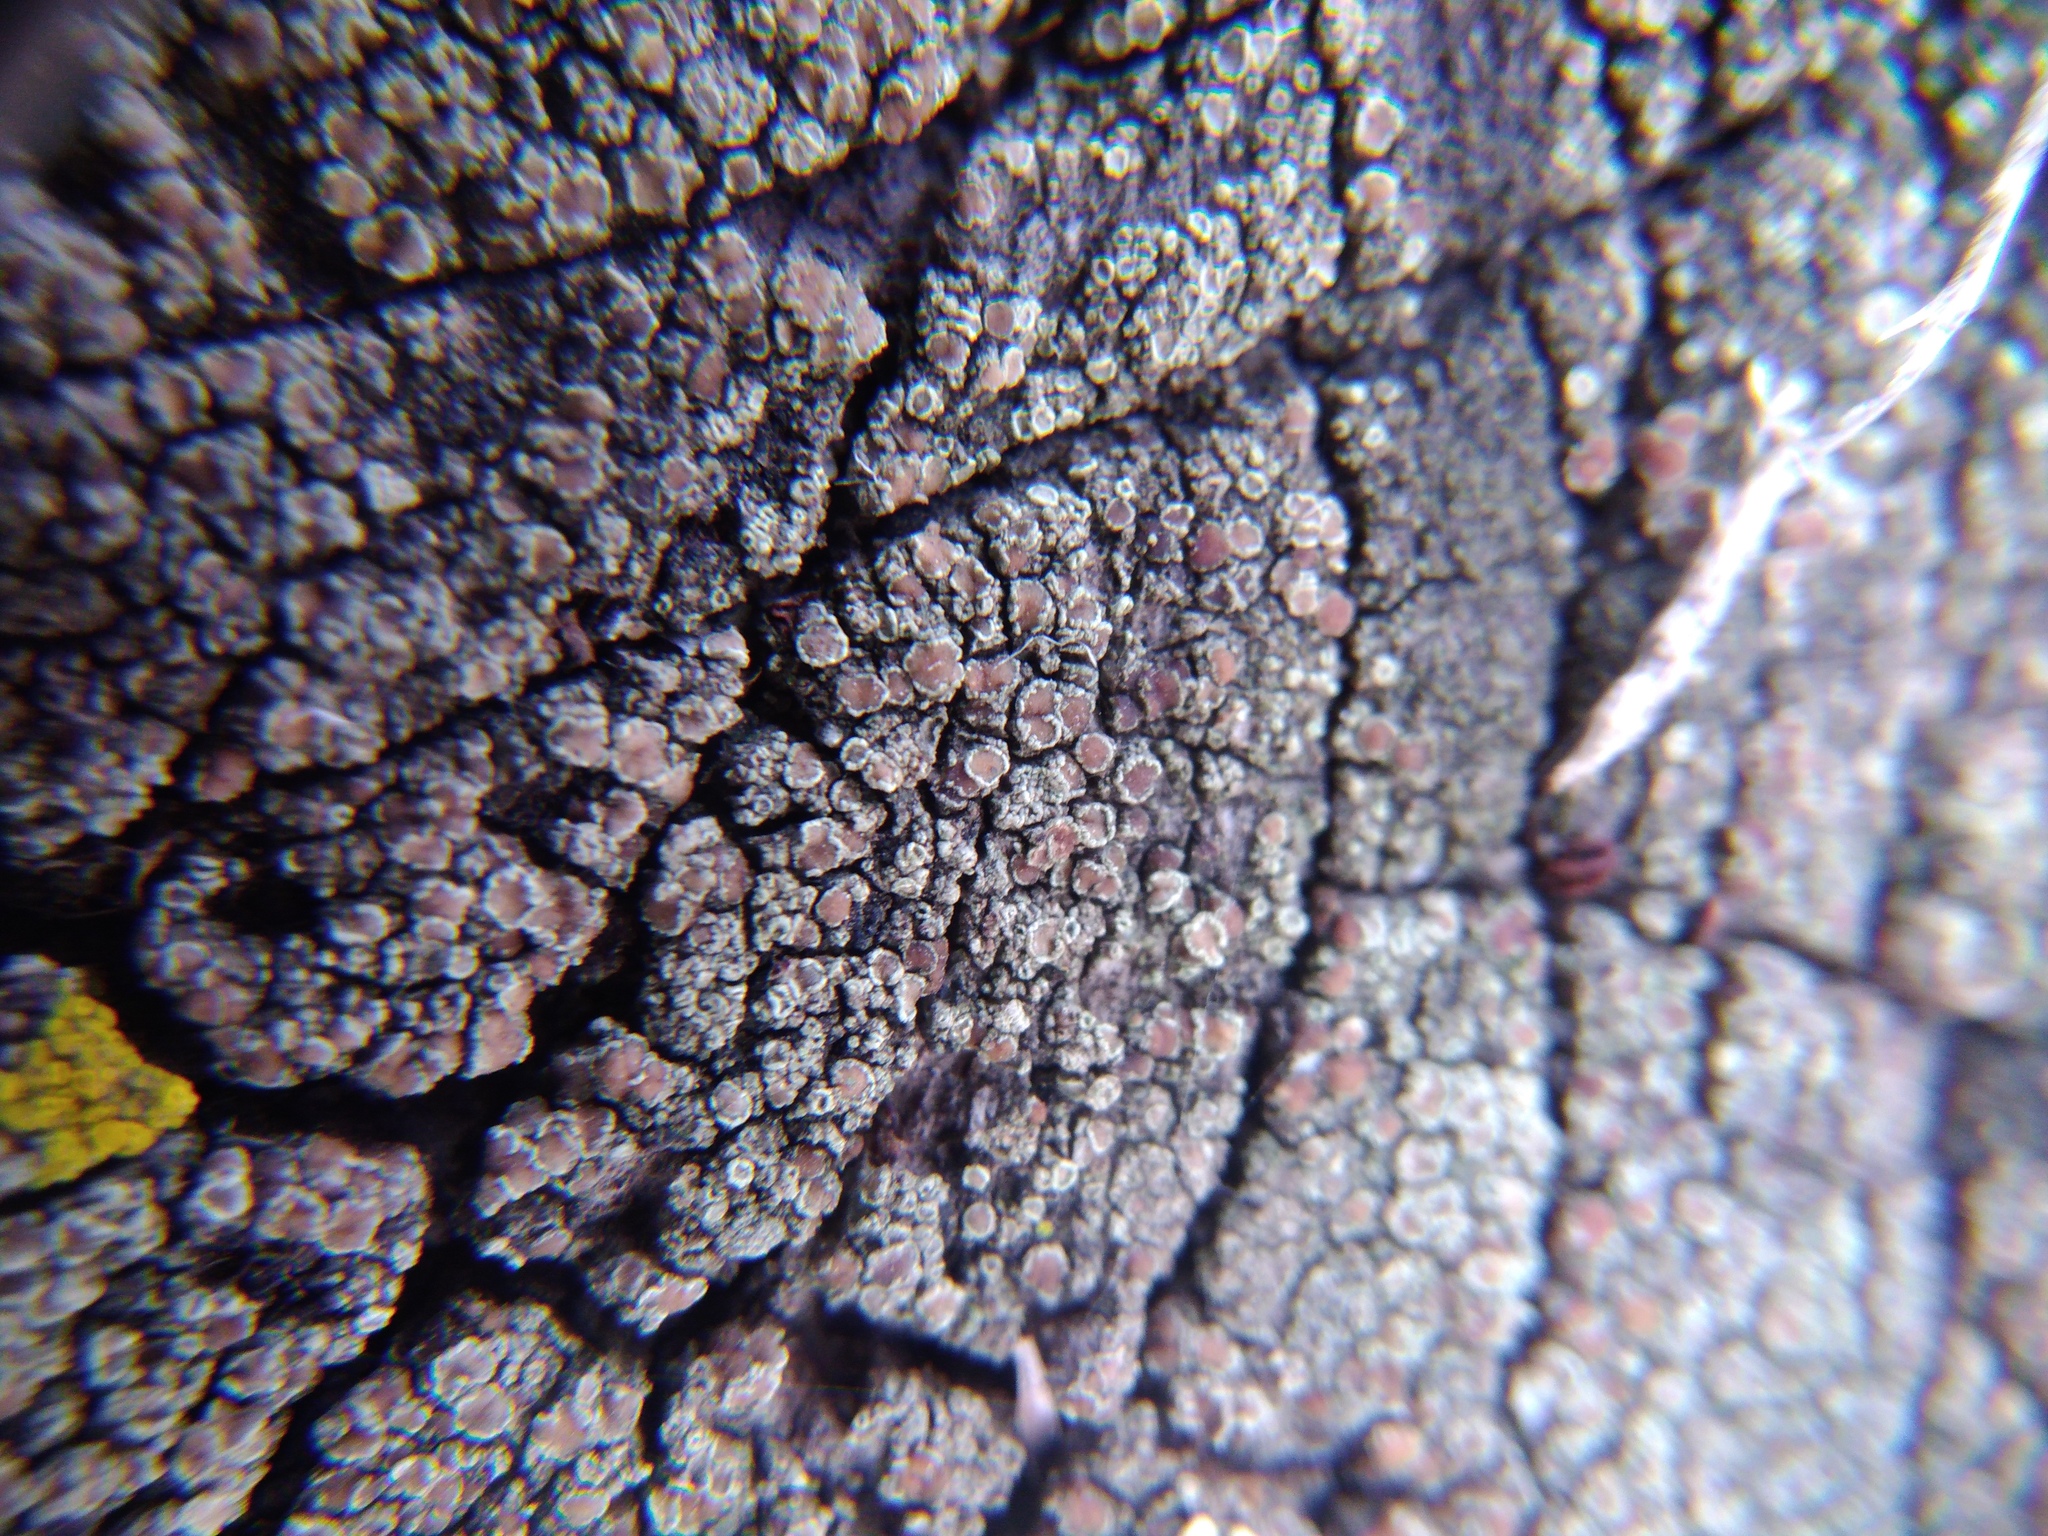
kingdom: Fungi
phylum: Ascomycota
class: Lecanoromycetes
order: Lecanorales
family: Lecanoraceae
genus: Lecanora
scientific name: Lecanora saligna
